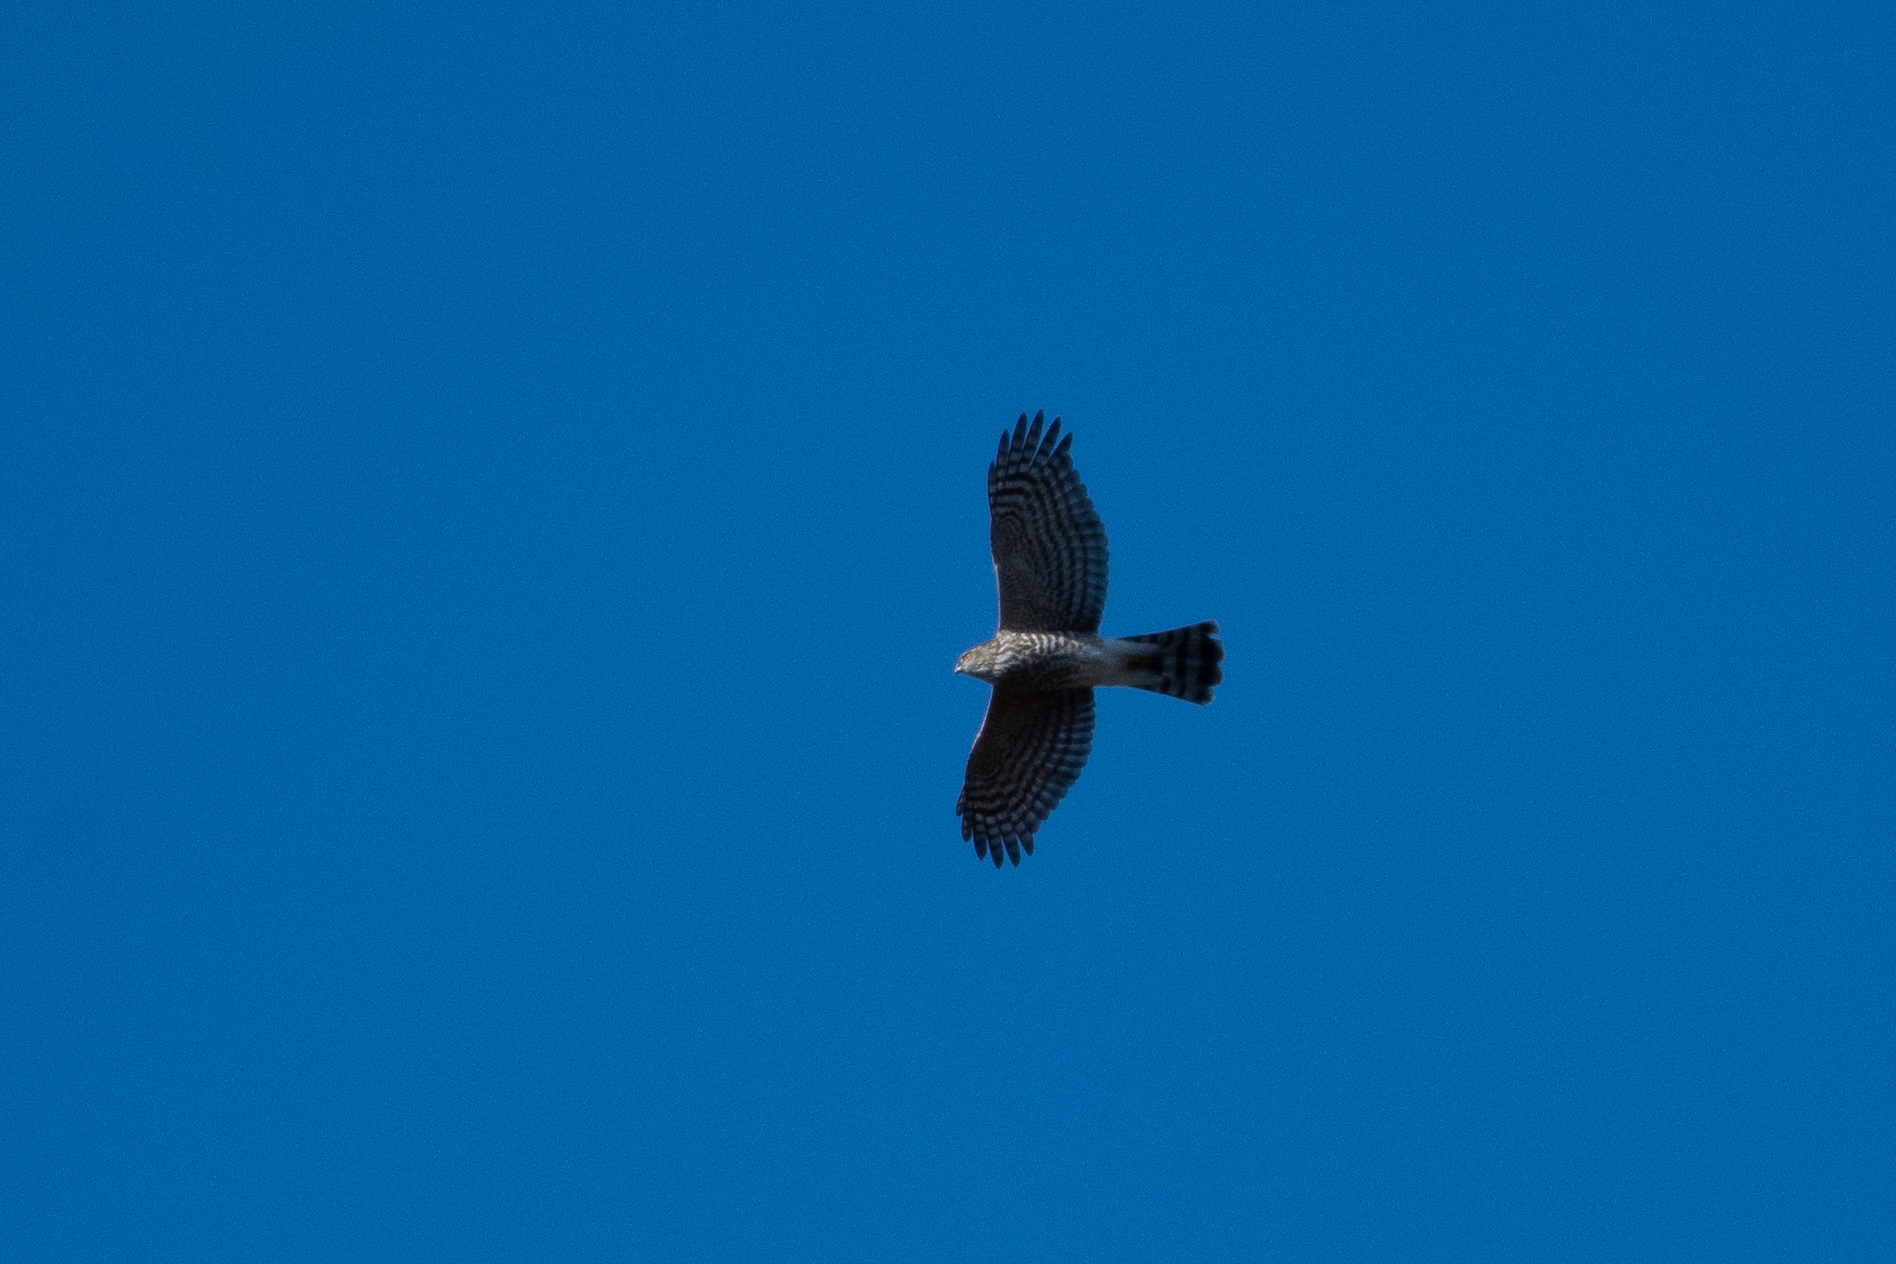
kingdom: Animalia
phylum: Chordata
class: Aves
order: Accipitriformes
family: Accipitridae
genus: Accipiter
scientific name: Accipiter striatus
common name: Sharp-shinned hawk
